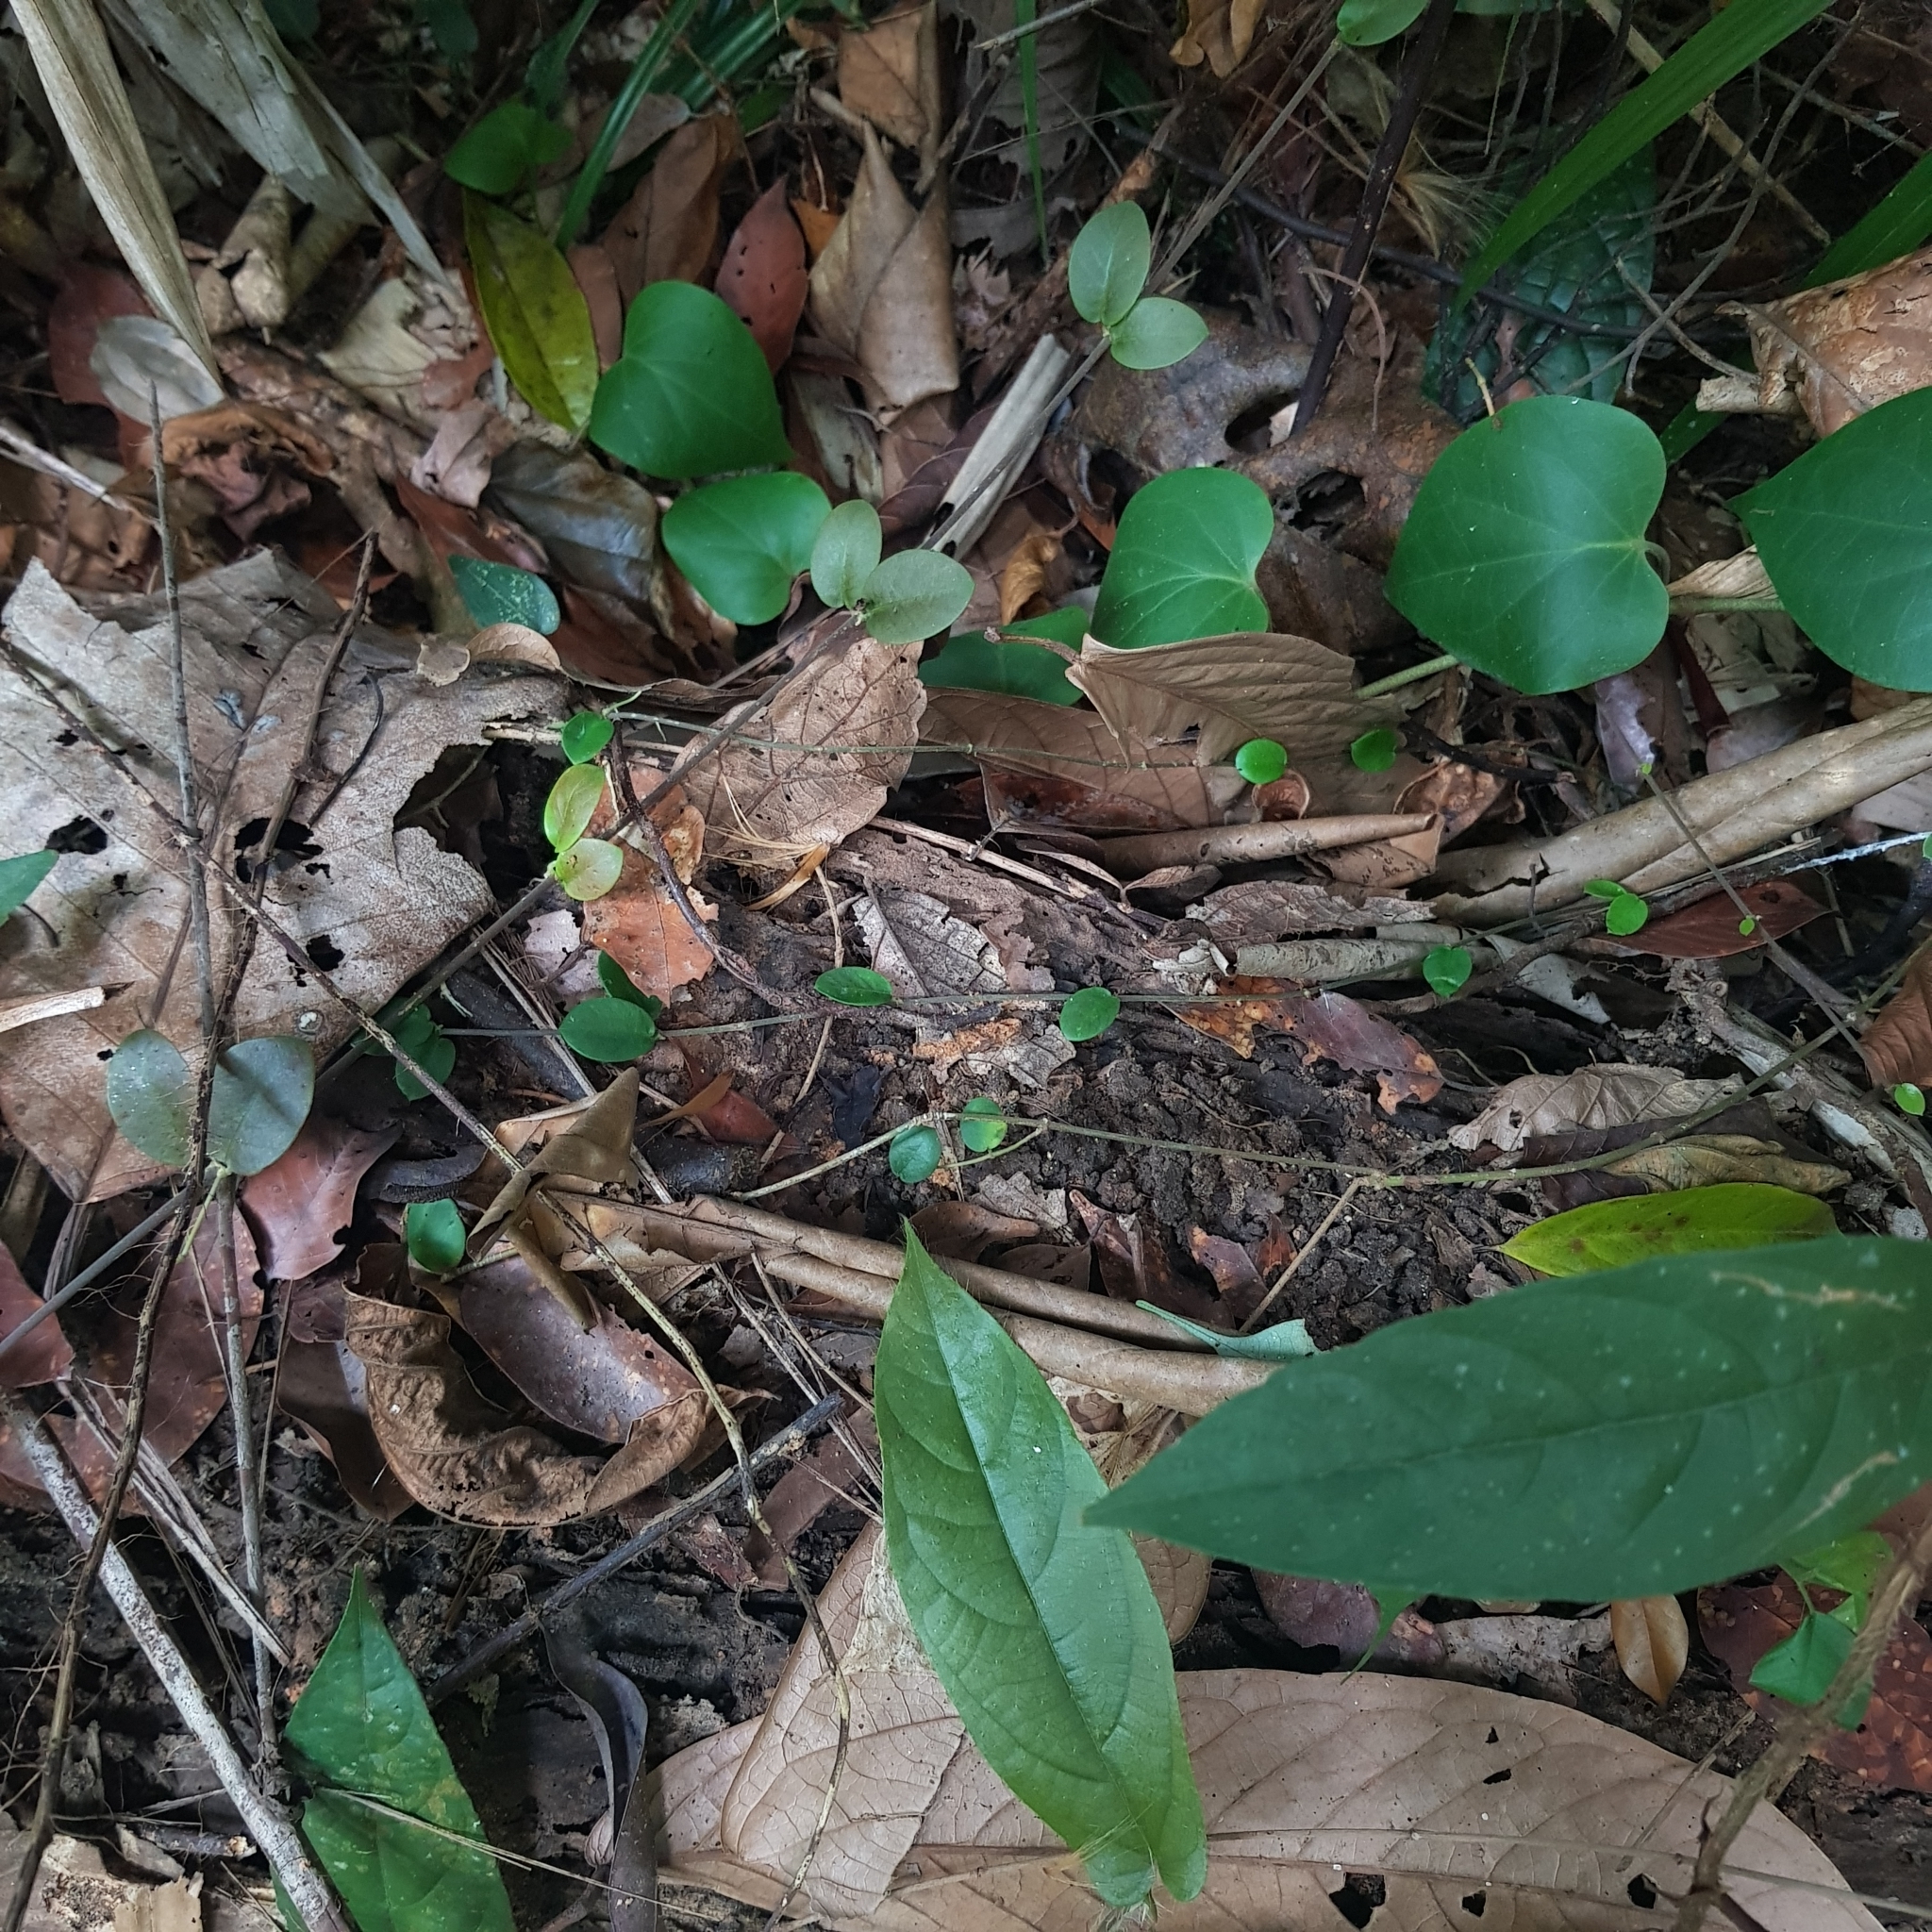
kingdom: Plantae
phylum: Tracheophyta
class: Magnoliopsida
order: Gentianales
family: Apocynaceae
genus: Micrechites
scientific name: Micrechites serpyllifolia
